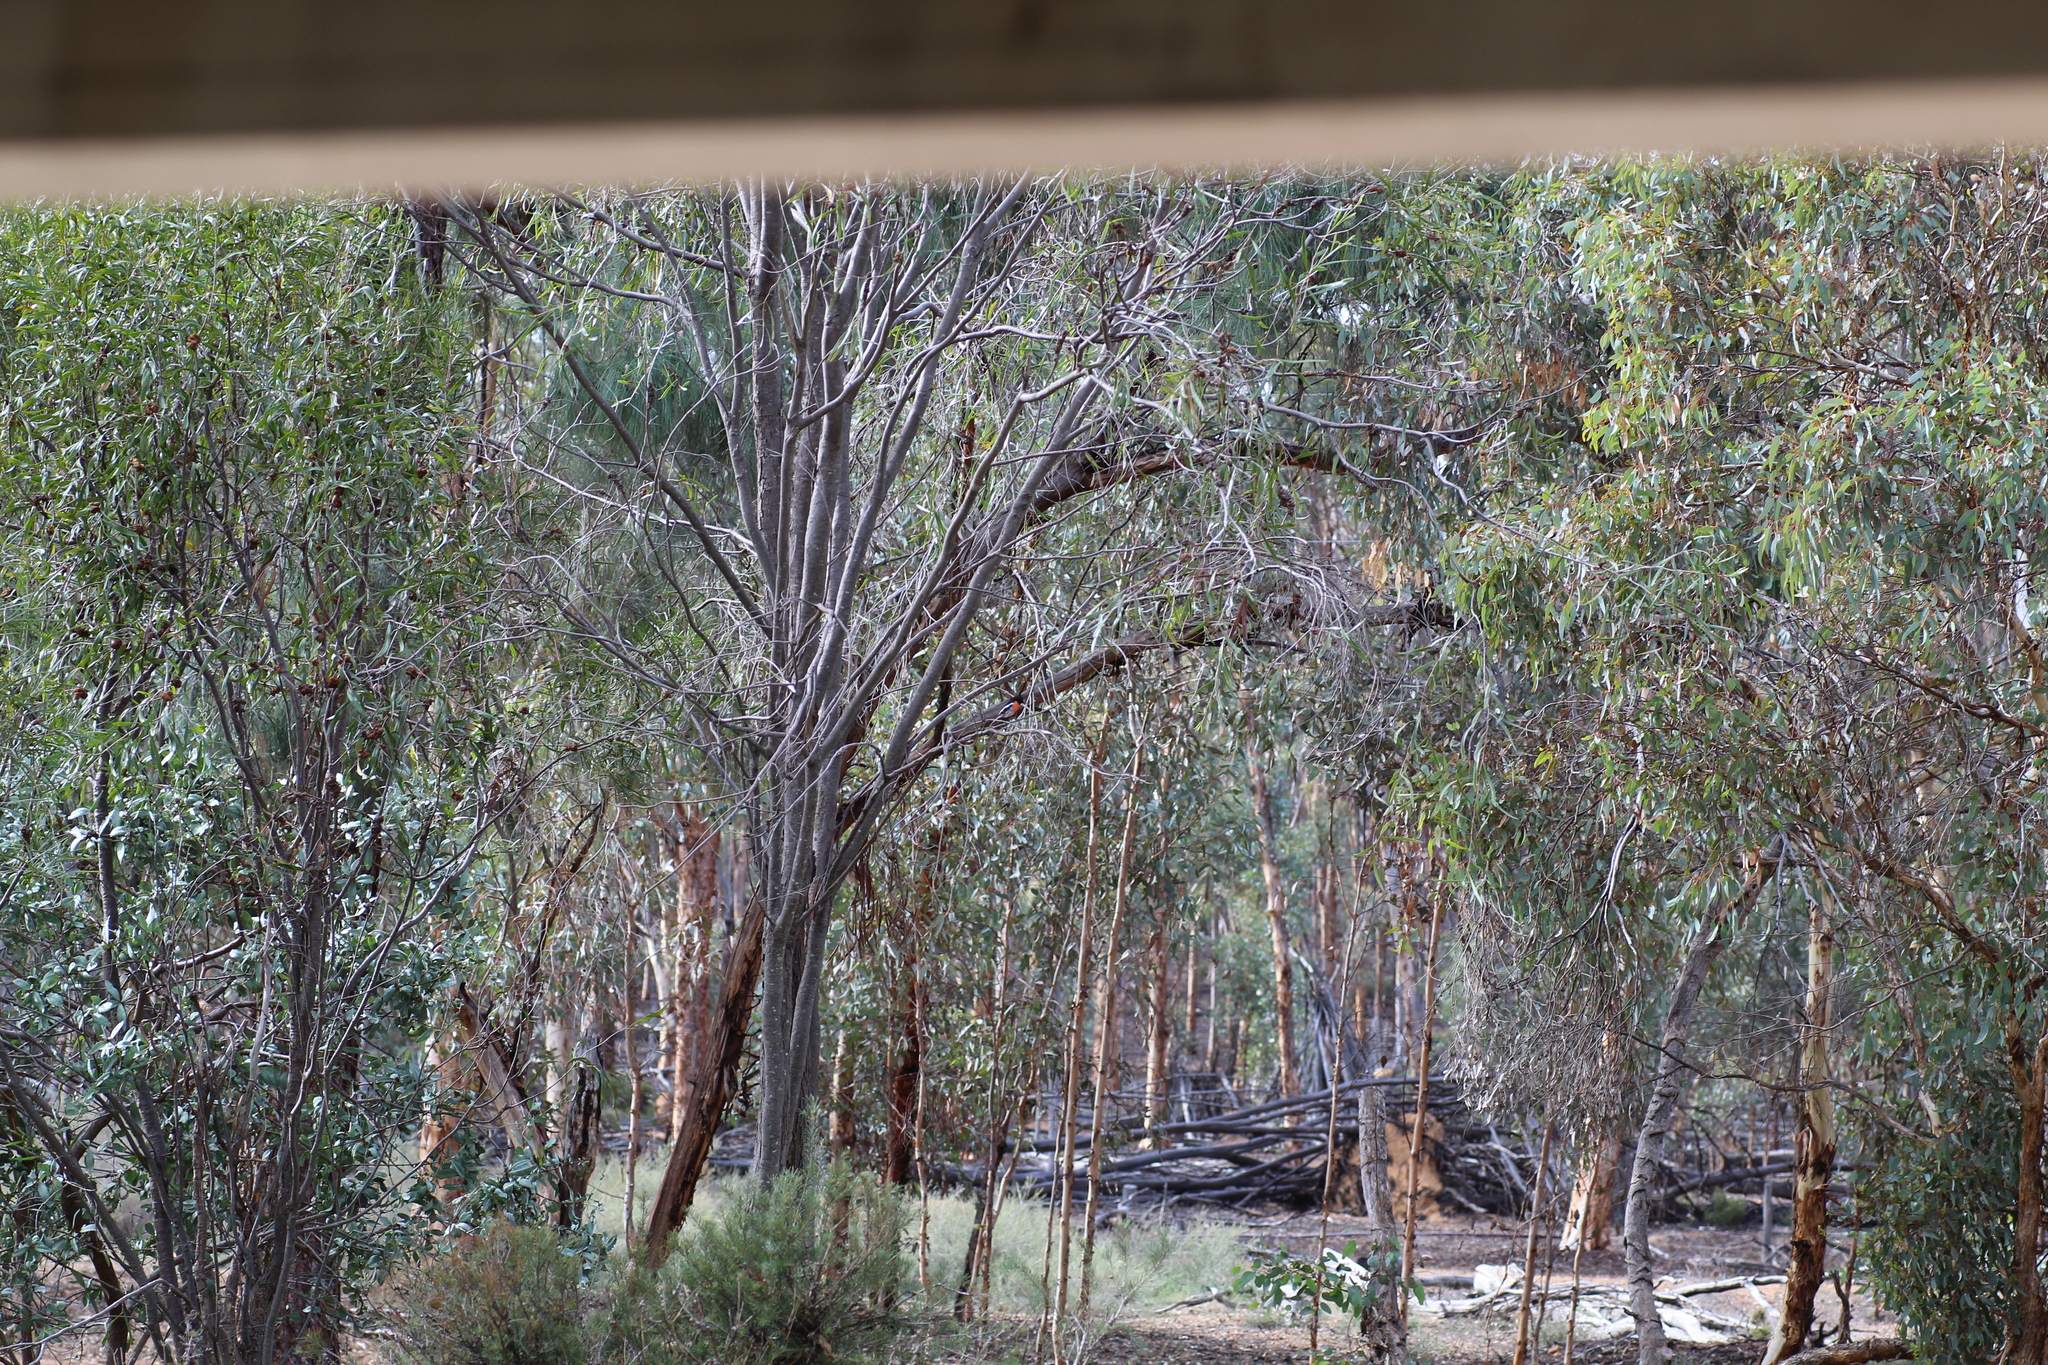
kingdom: Animalia
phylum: Chordata
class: Aves
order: Passeriformes
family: Petroicidae
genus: Petroica
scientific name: Petroica boodang
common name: Scarlet robin
